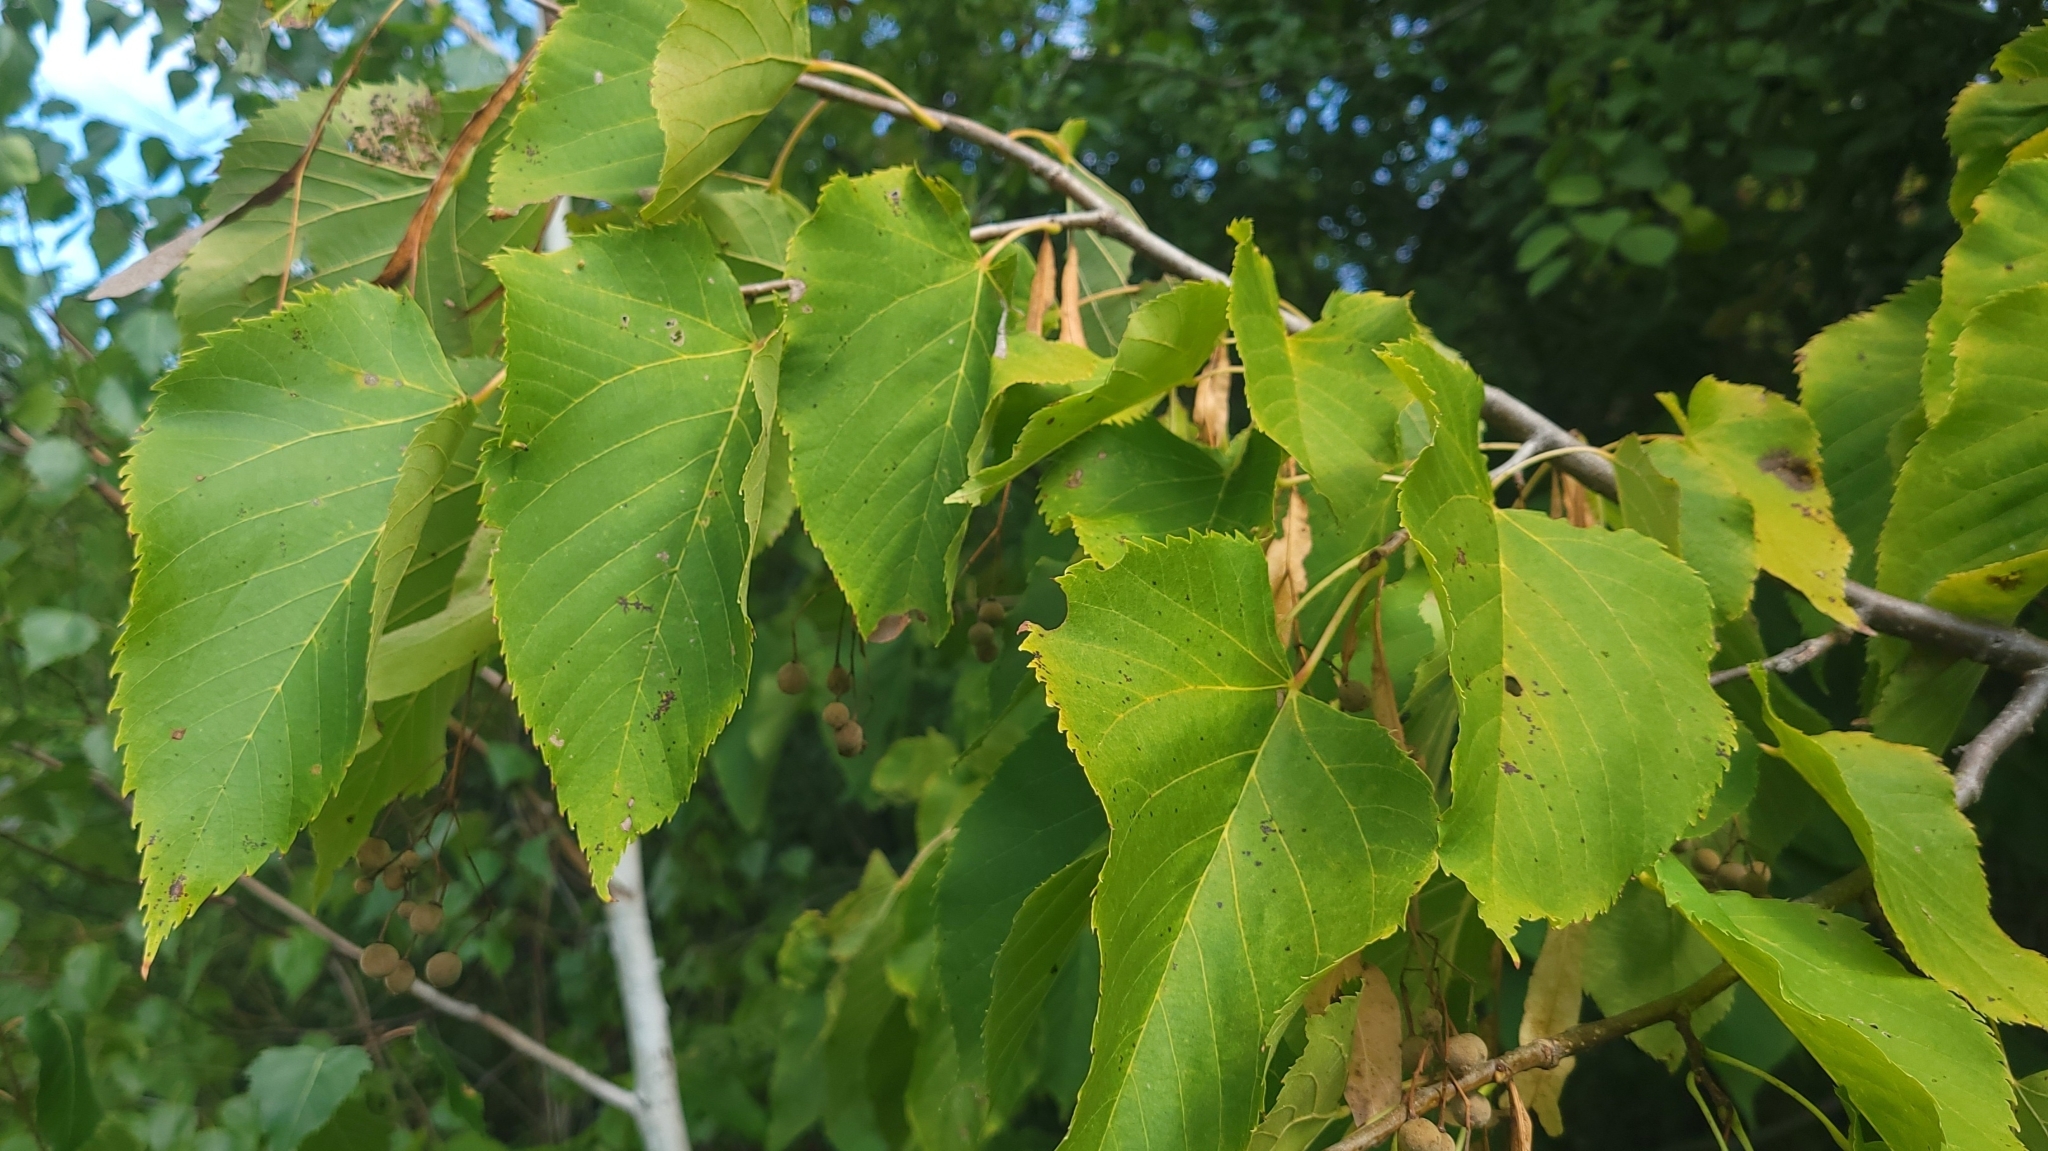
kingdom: Plantae
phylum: Tracheophyta
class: Magnoliopsida
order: Malvales
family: Malvaceae
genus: Tilia
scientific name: Tilia americana
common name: Basswood
